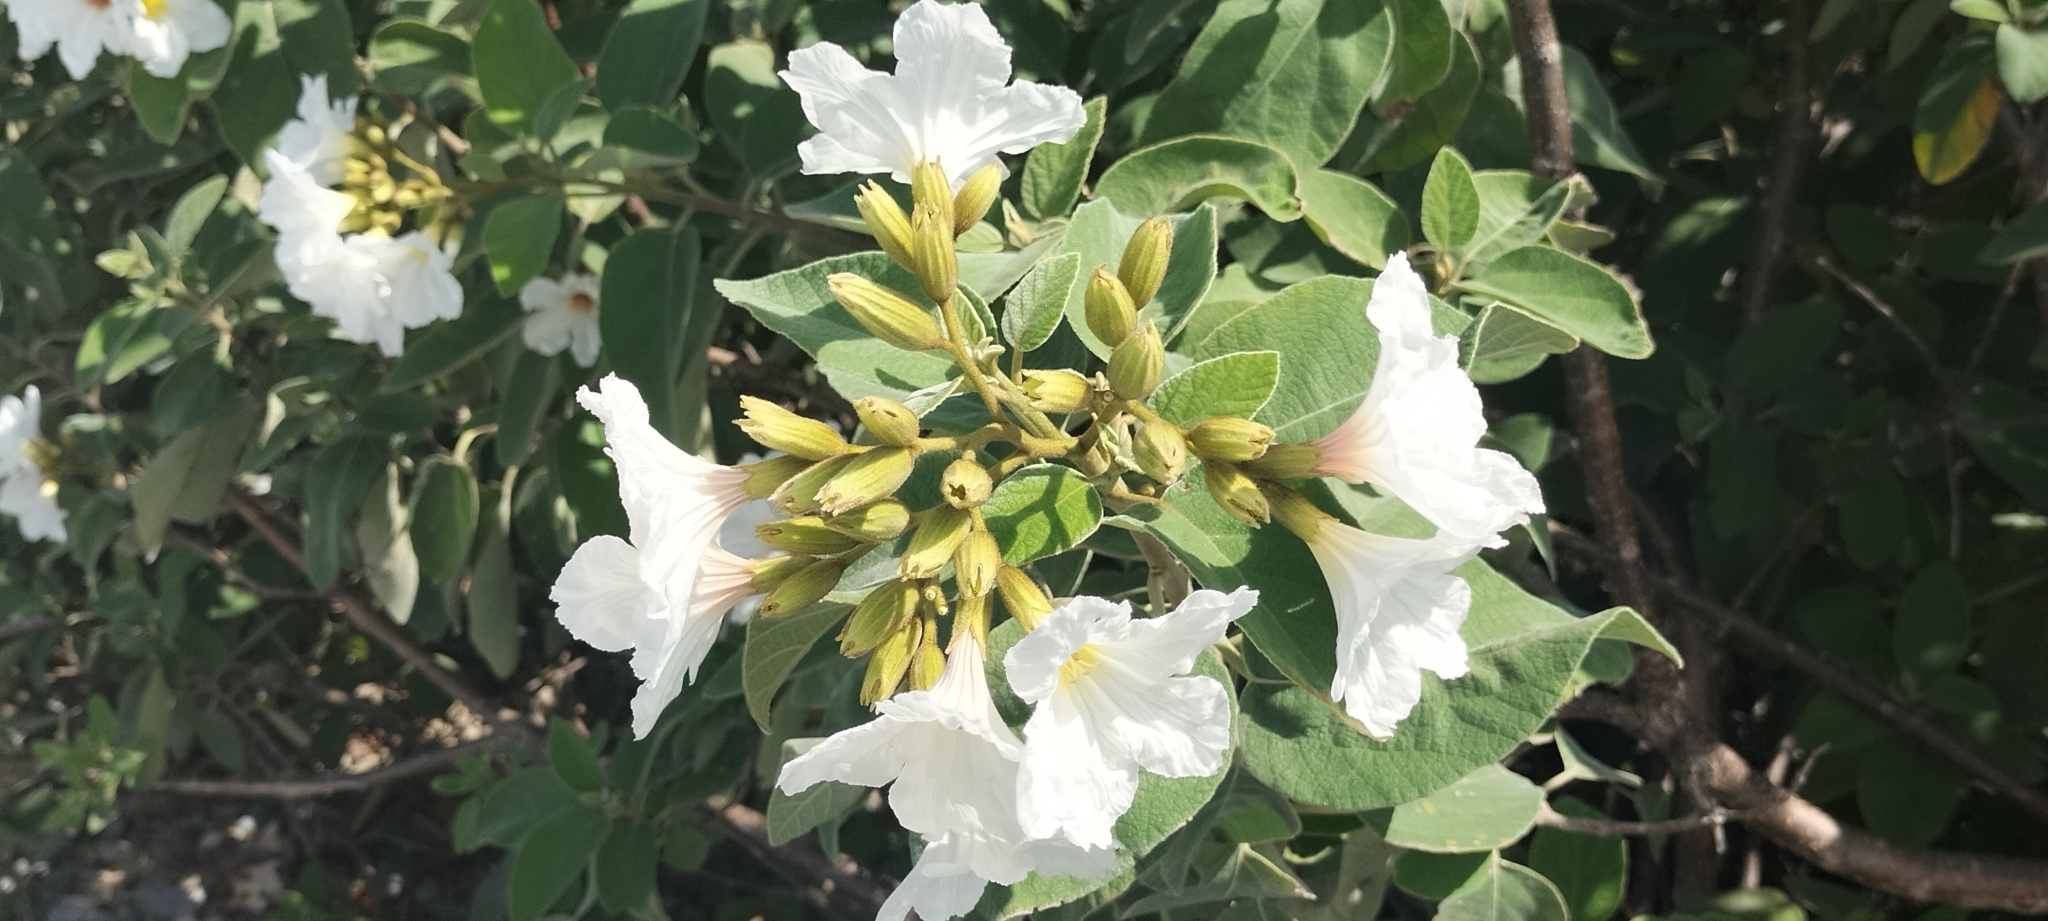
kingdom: Plantae
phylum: Tracheophyta
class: Magnoliopsida
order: Boraginales
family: Cordiaceae
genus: Cordia
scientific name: Cordia boissieri
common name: Mexican-olive
